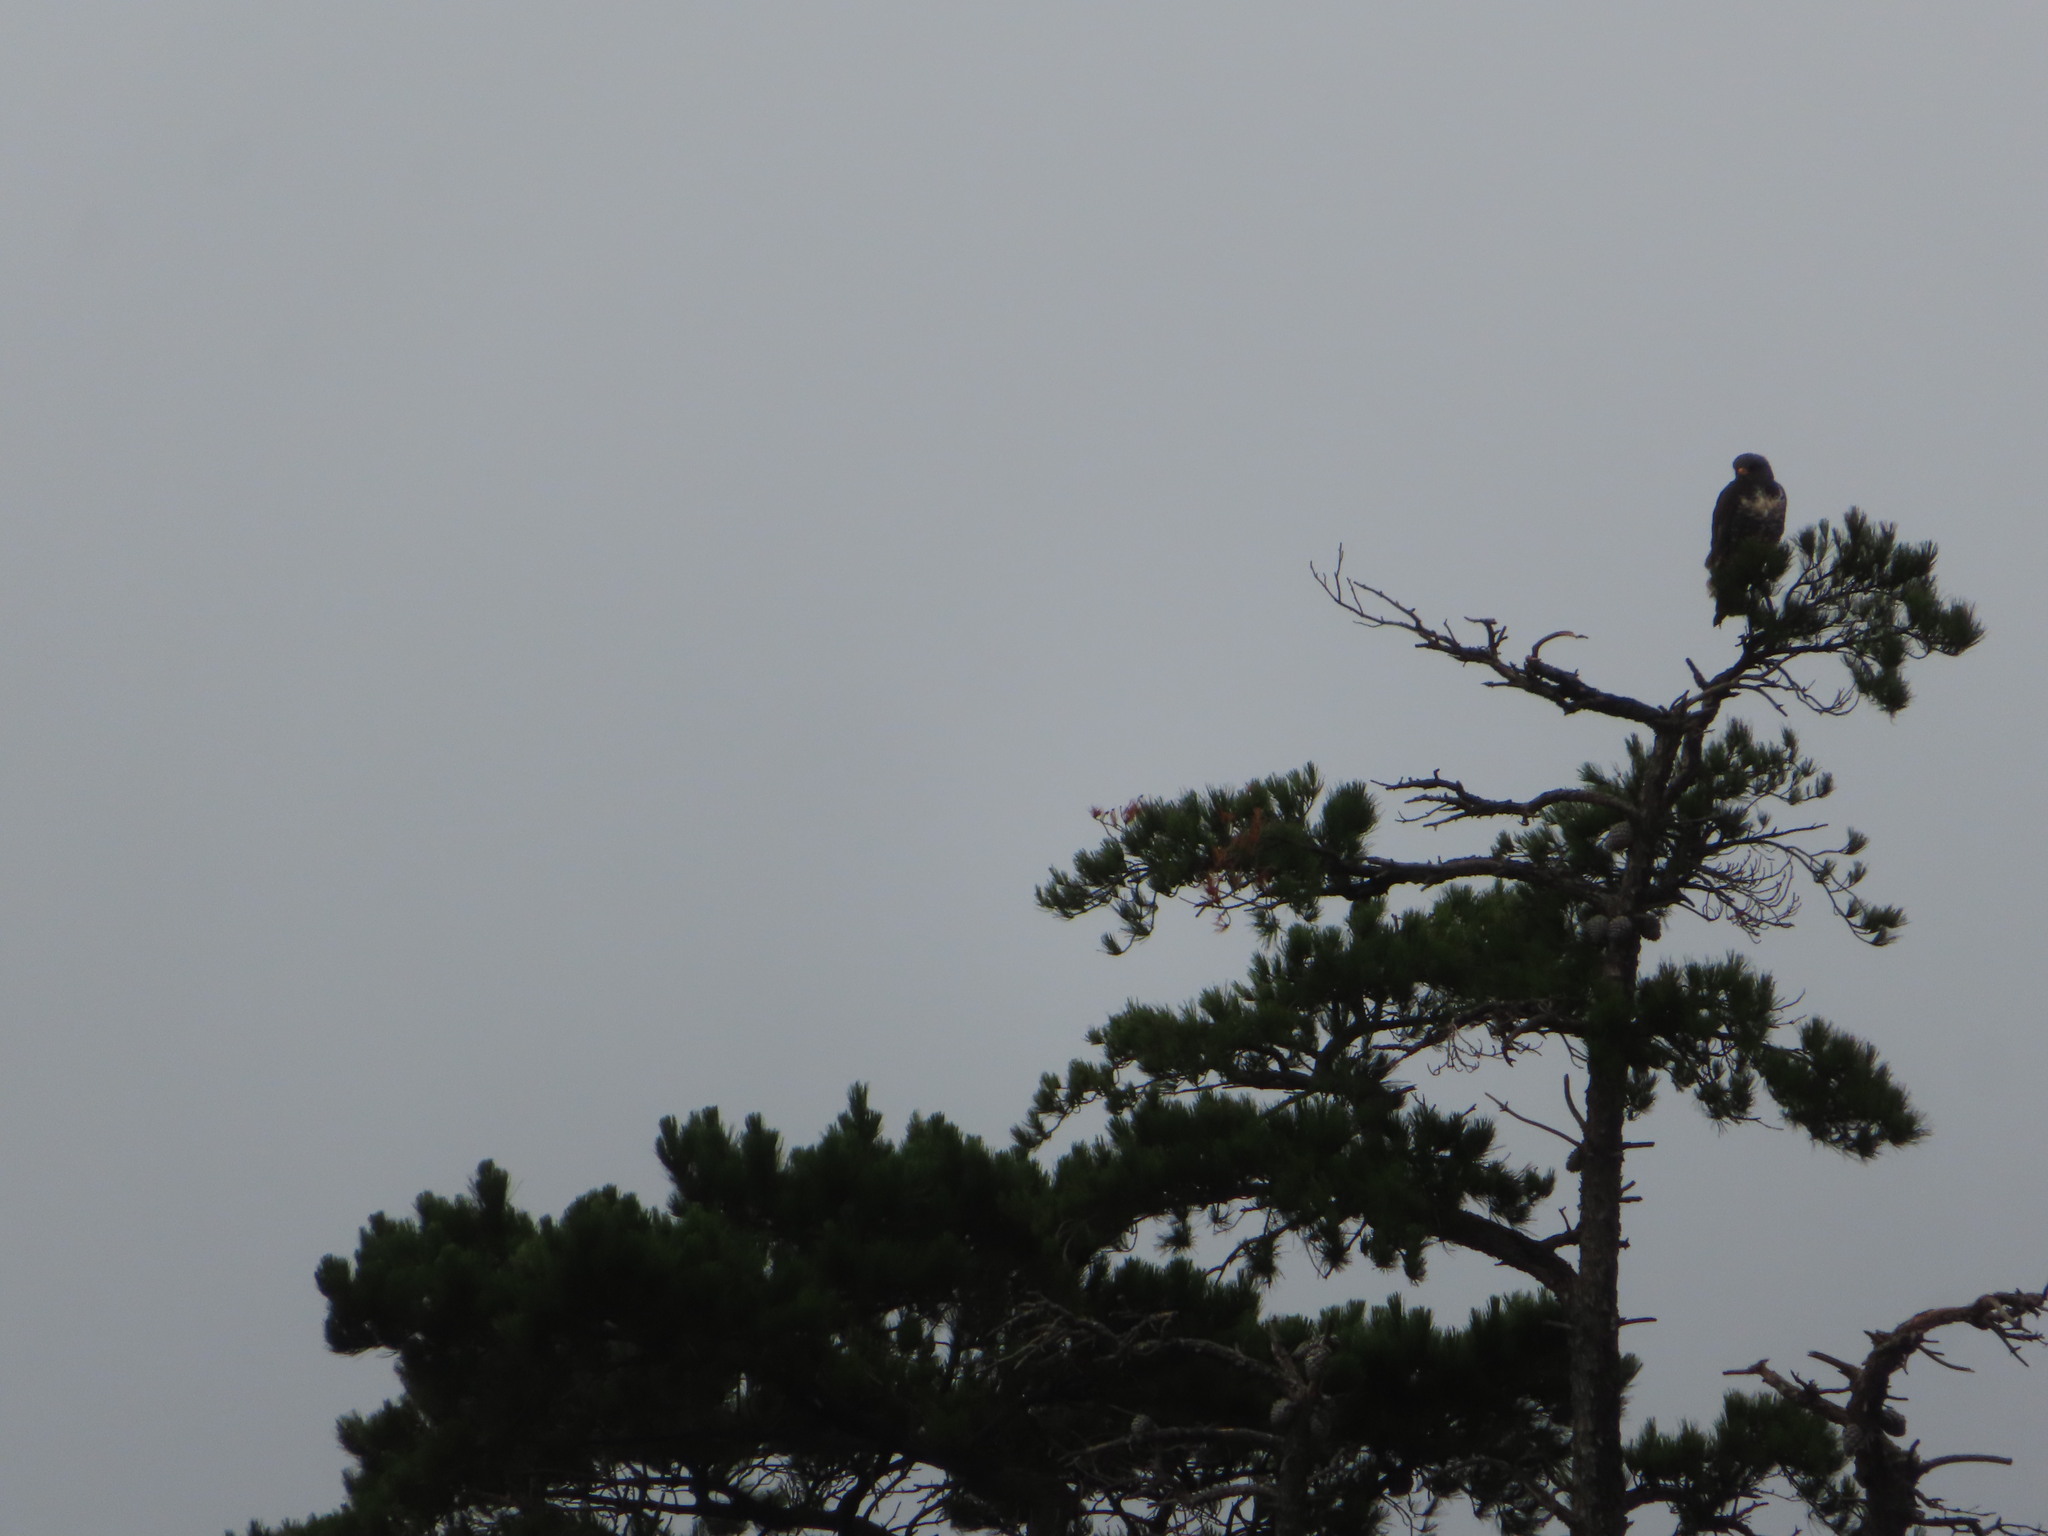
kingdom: Animalia
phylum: Chordata
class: Aves
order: Accipitriformes
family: Accipitridae
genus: Buteo
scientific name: Buteo rufofuscus
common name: Jackal buzzard
